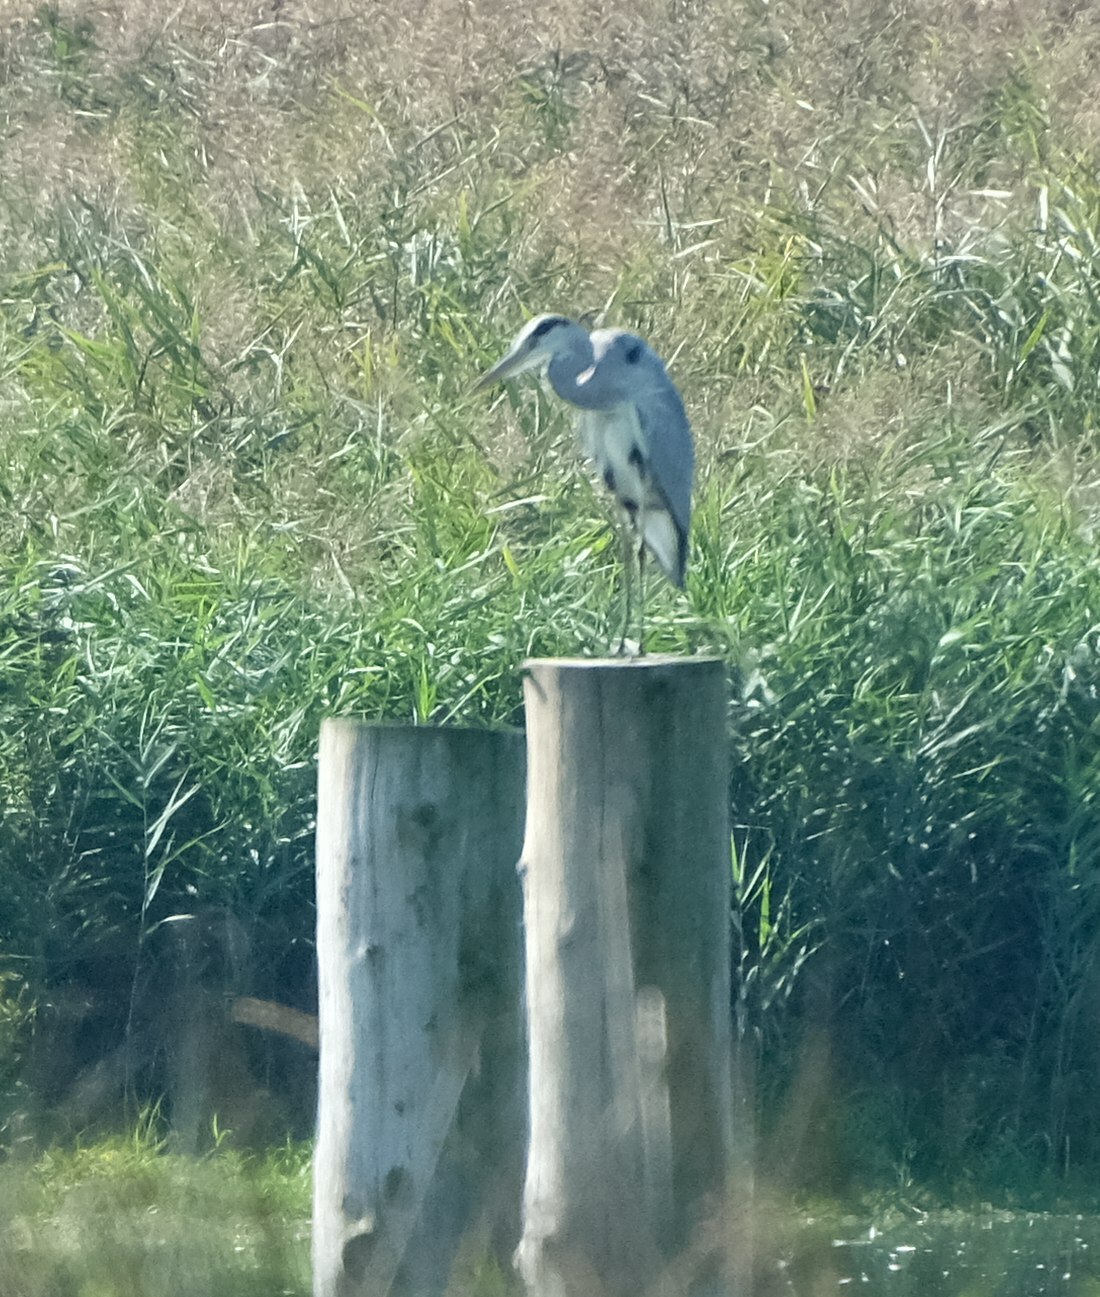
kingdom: Animalia
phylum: Chordata
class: Aves
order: Pelecaniformes
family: Ardeidae
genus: Ardea
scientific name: Ardea cinerea
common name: Grey heron
